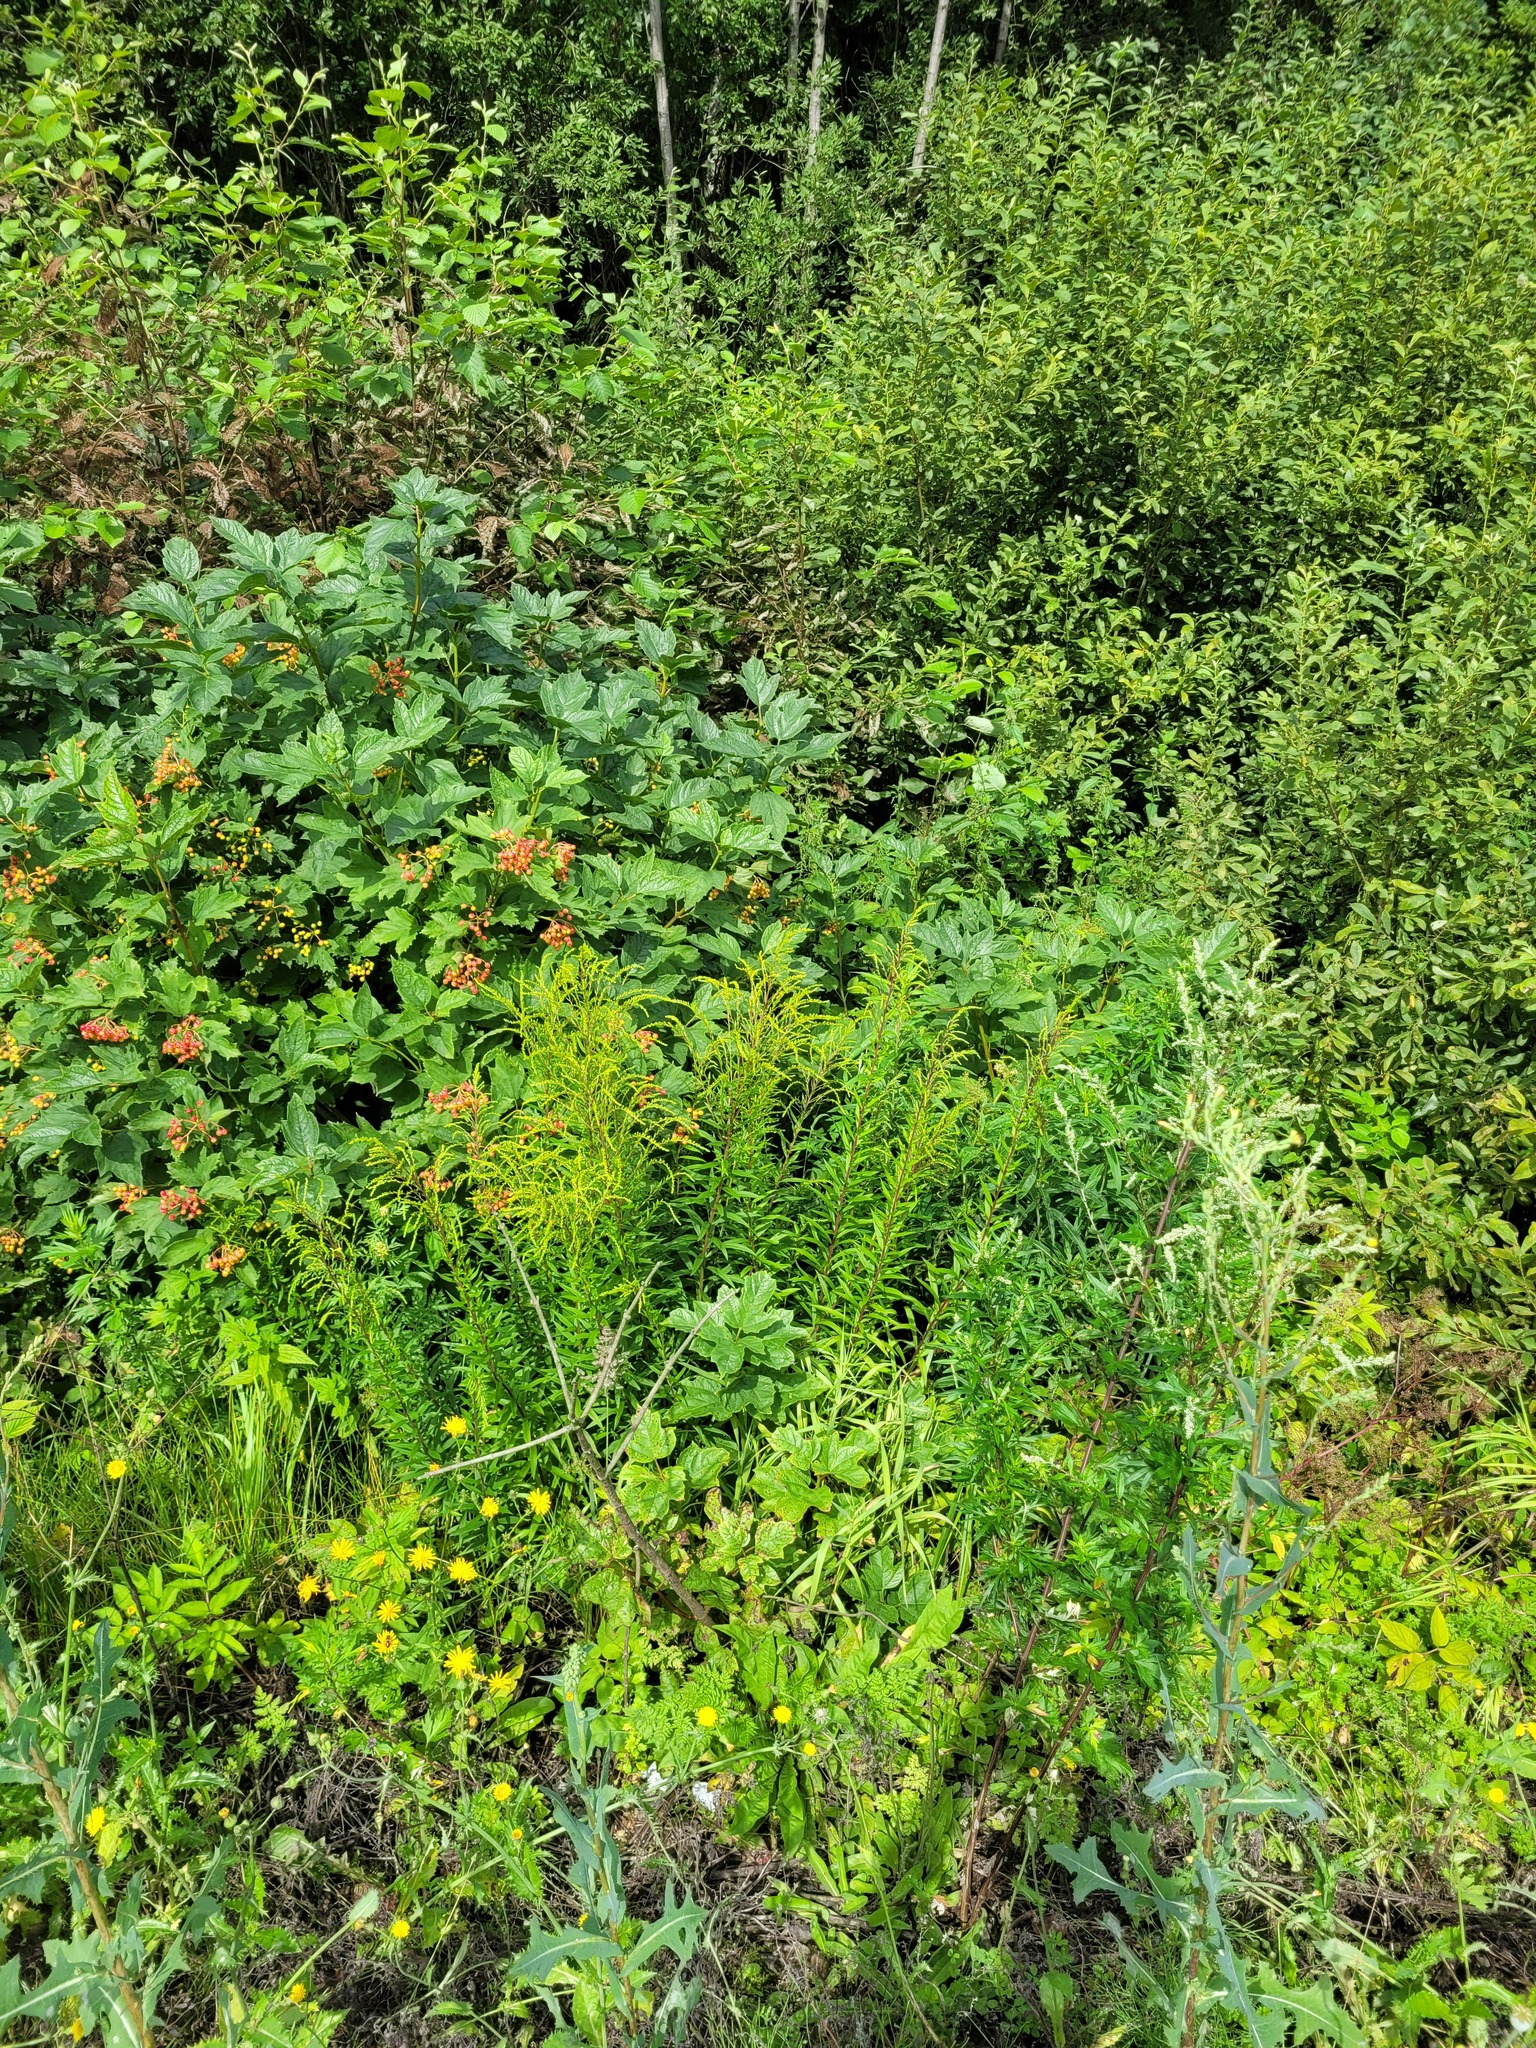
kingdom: Plantae
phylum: Tracheophyta
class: Magnoliopsida
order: Asterales
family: Asteraceae
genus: Solidago
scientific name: Solidago canadensis
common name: Canada goldenrod
